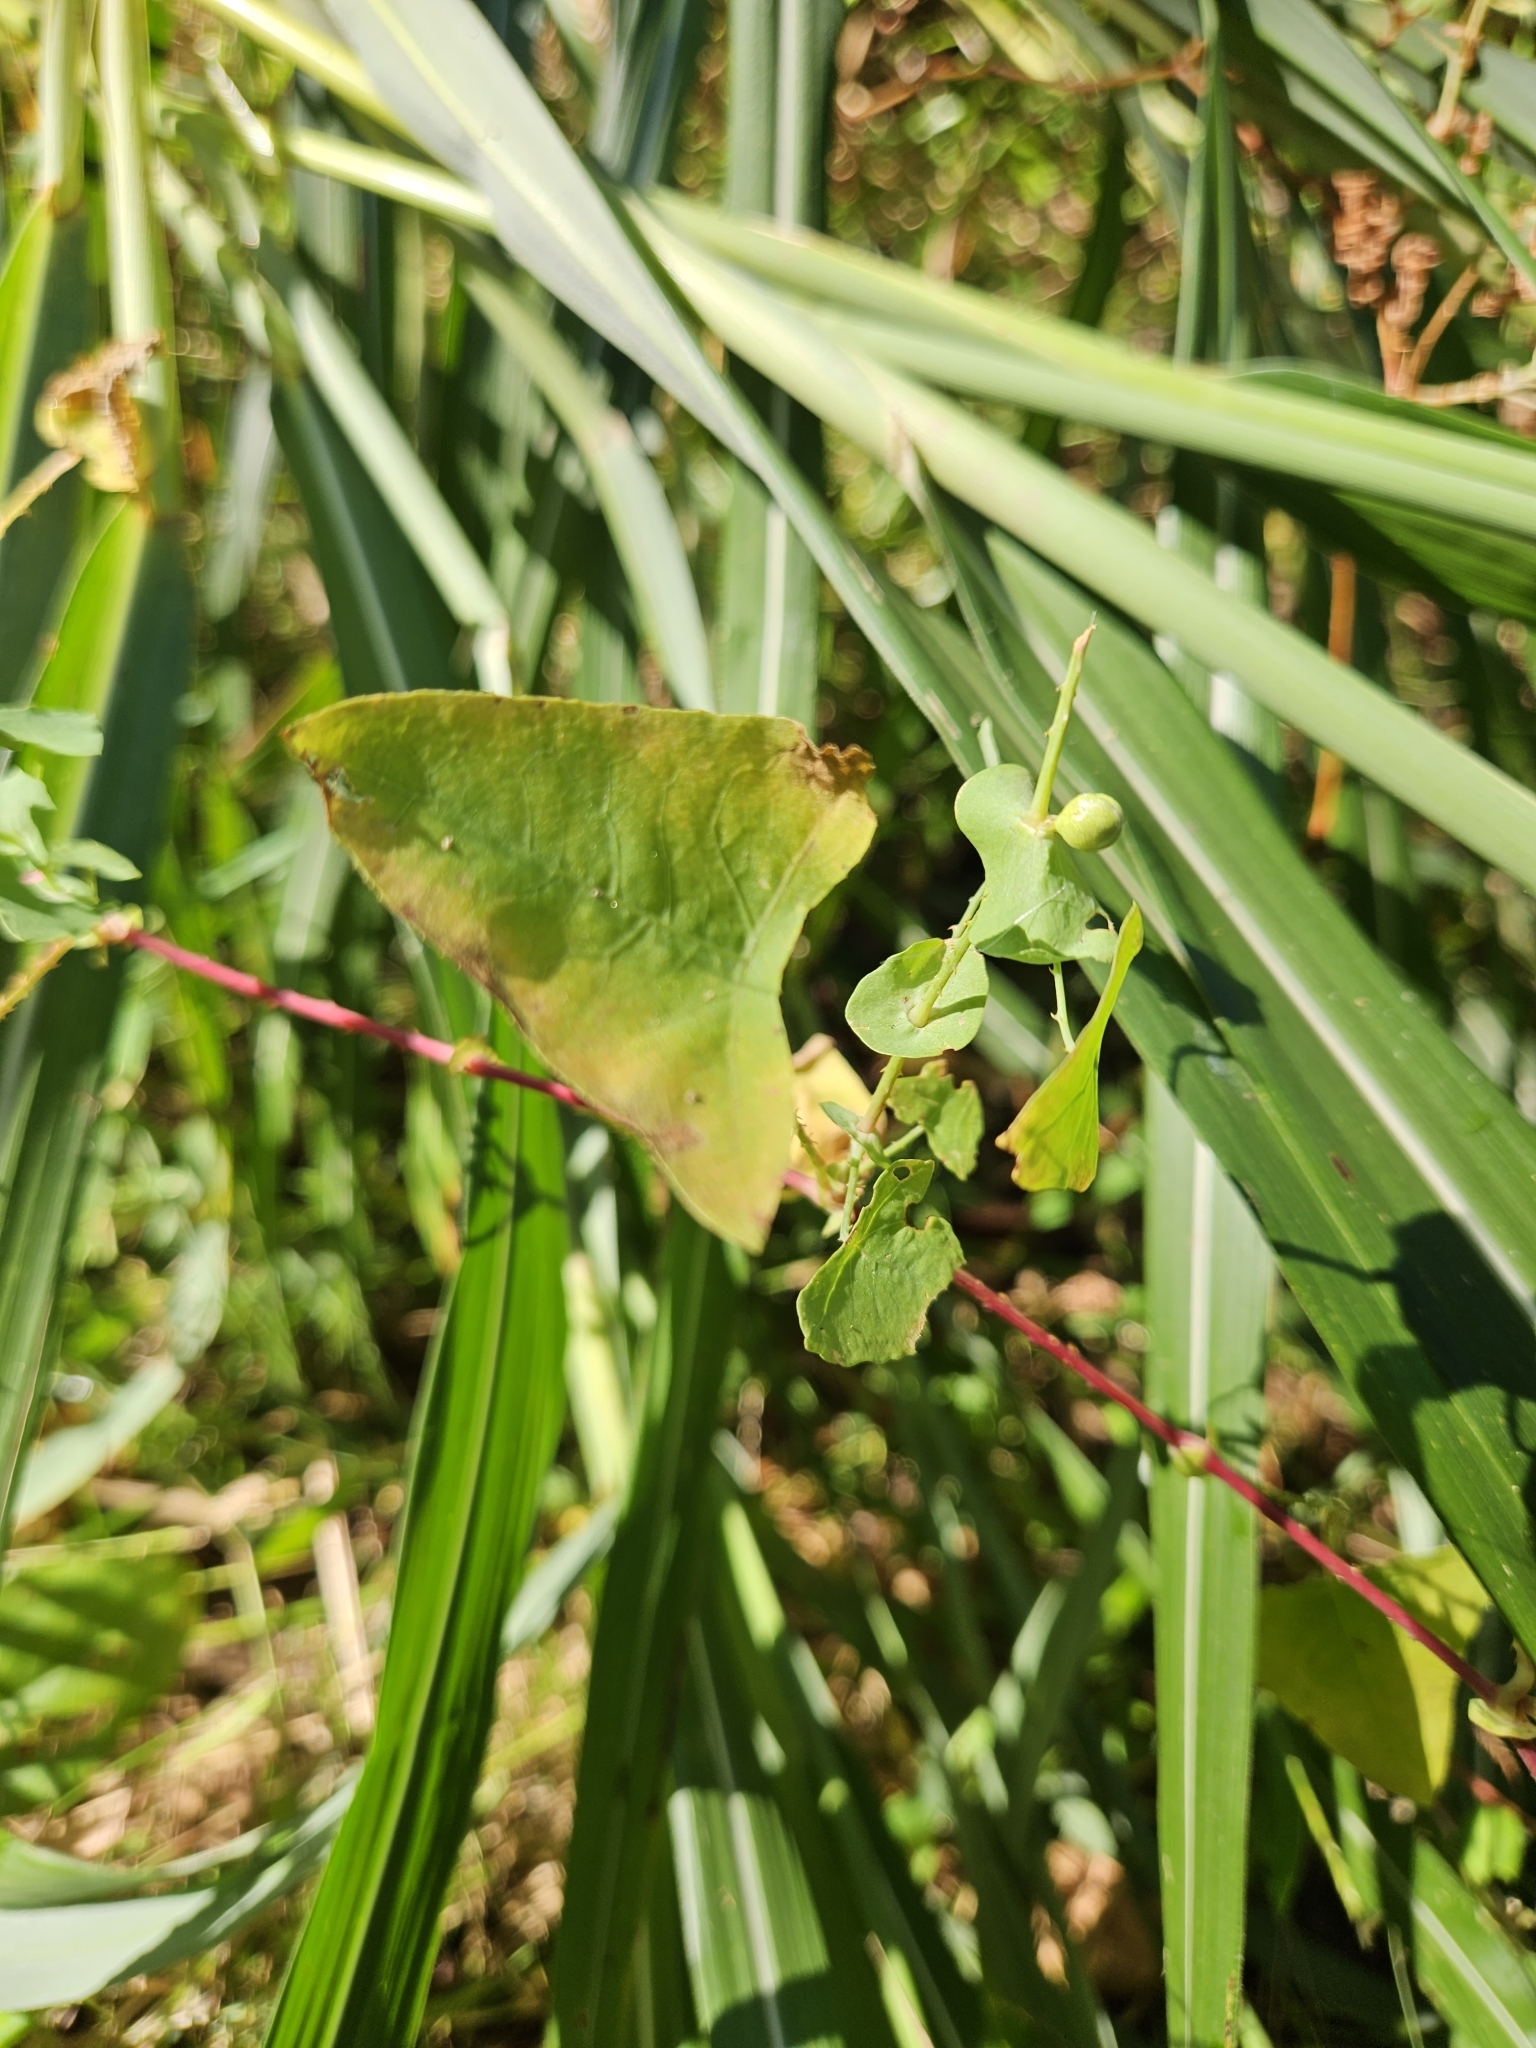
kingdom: Plantae
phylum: Tracheophyta
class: Magnoliopsida
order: Caryophyllales
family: Polygonaceae
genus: Persicaria
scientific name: Persicaria perfoliata
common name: Asiatic tearthumb
